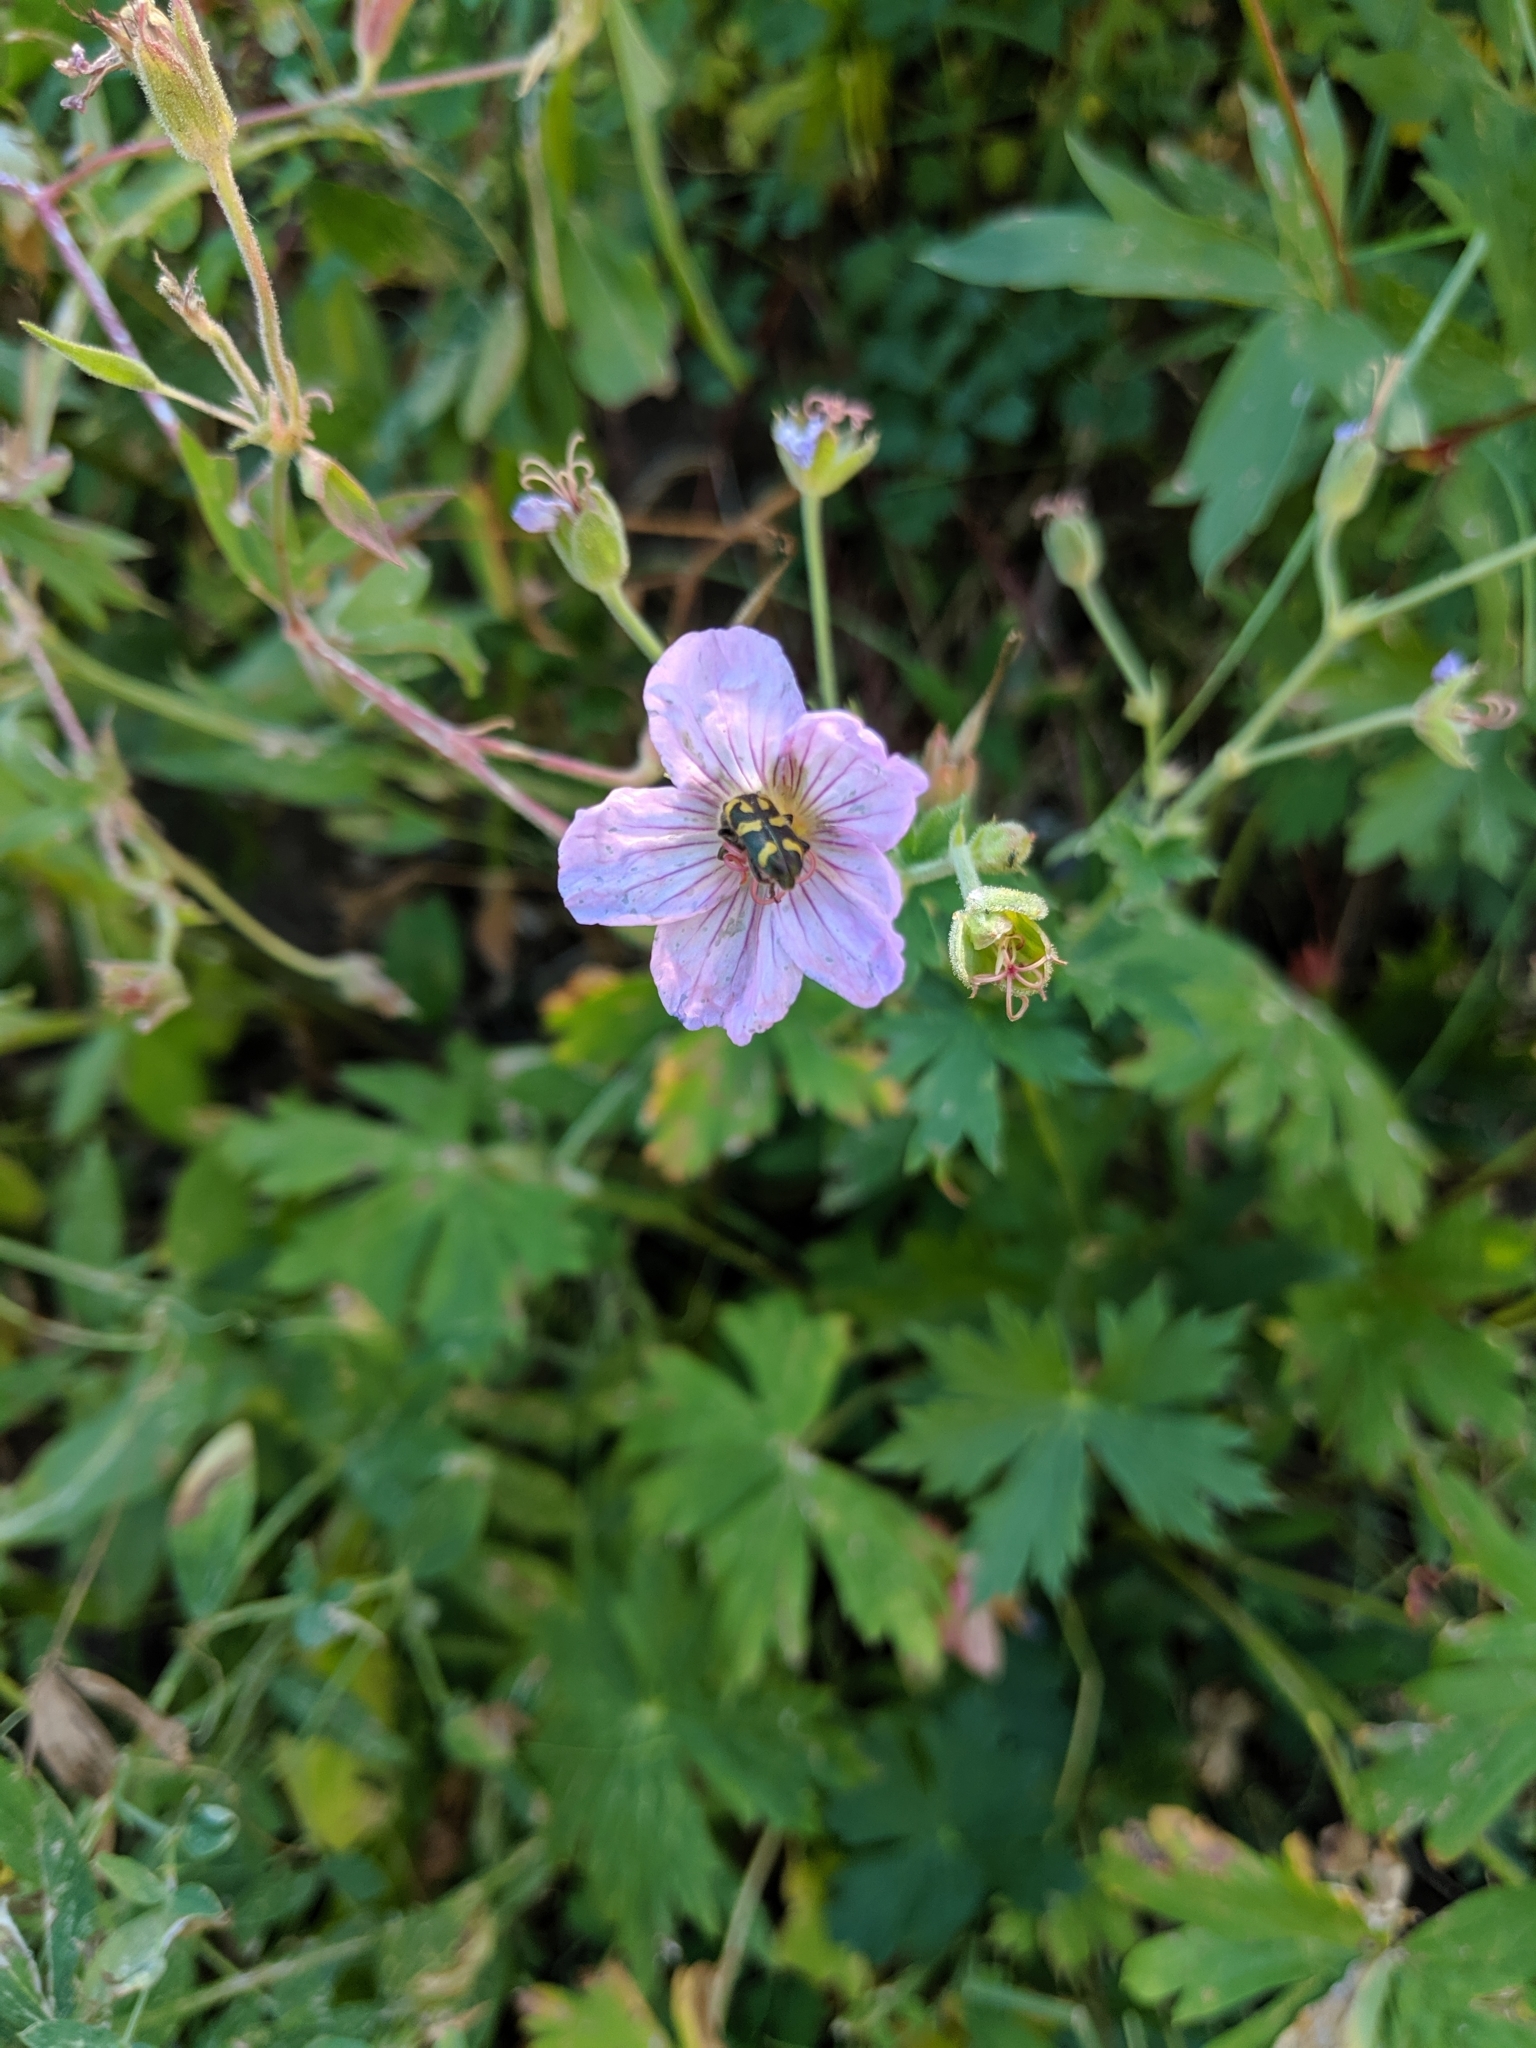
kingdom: Animalia
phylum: Arthropoda
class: Insecta
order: Coleoptera
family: Cleridae
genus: Trichodes
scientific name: Trichodes ornatus
